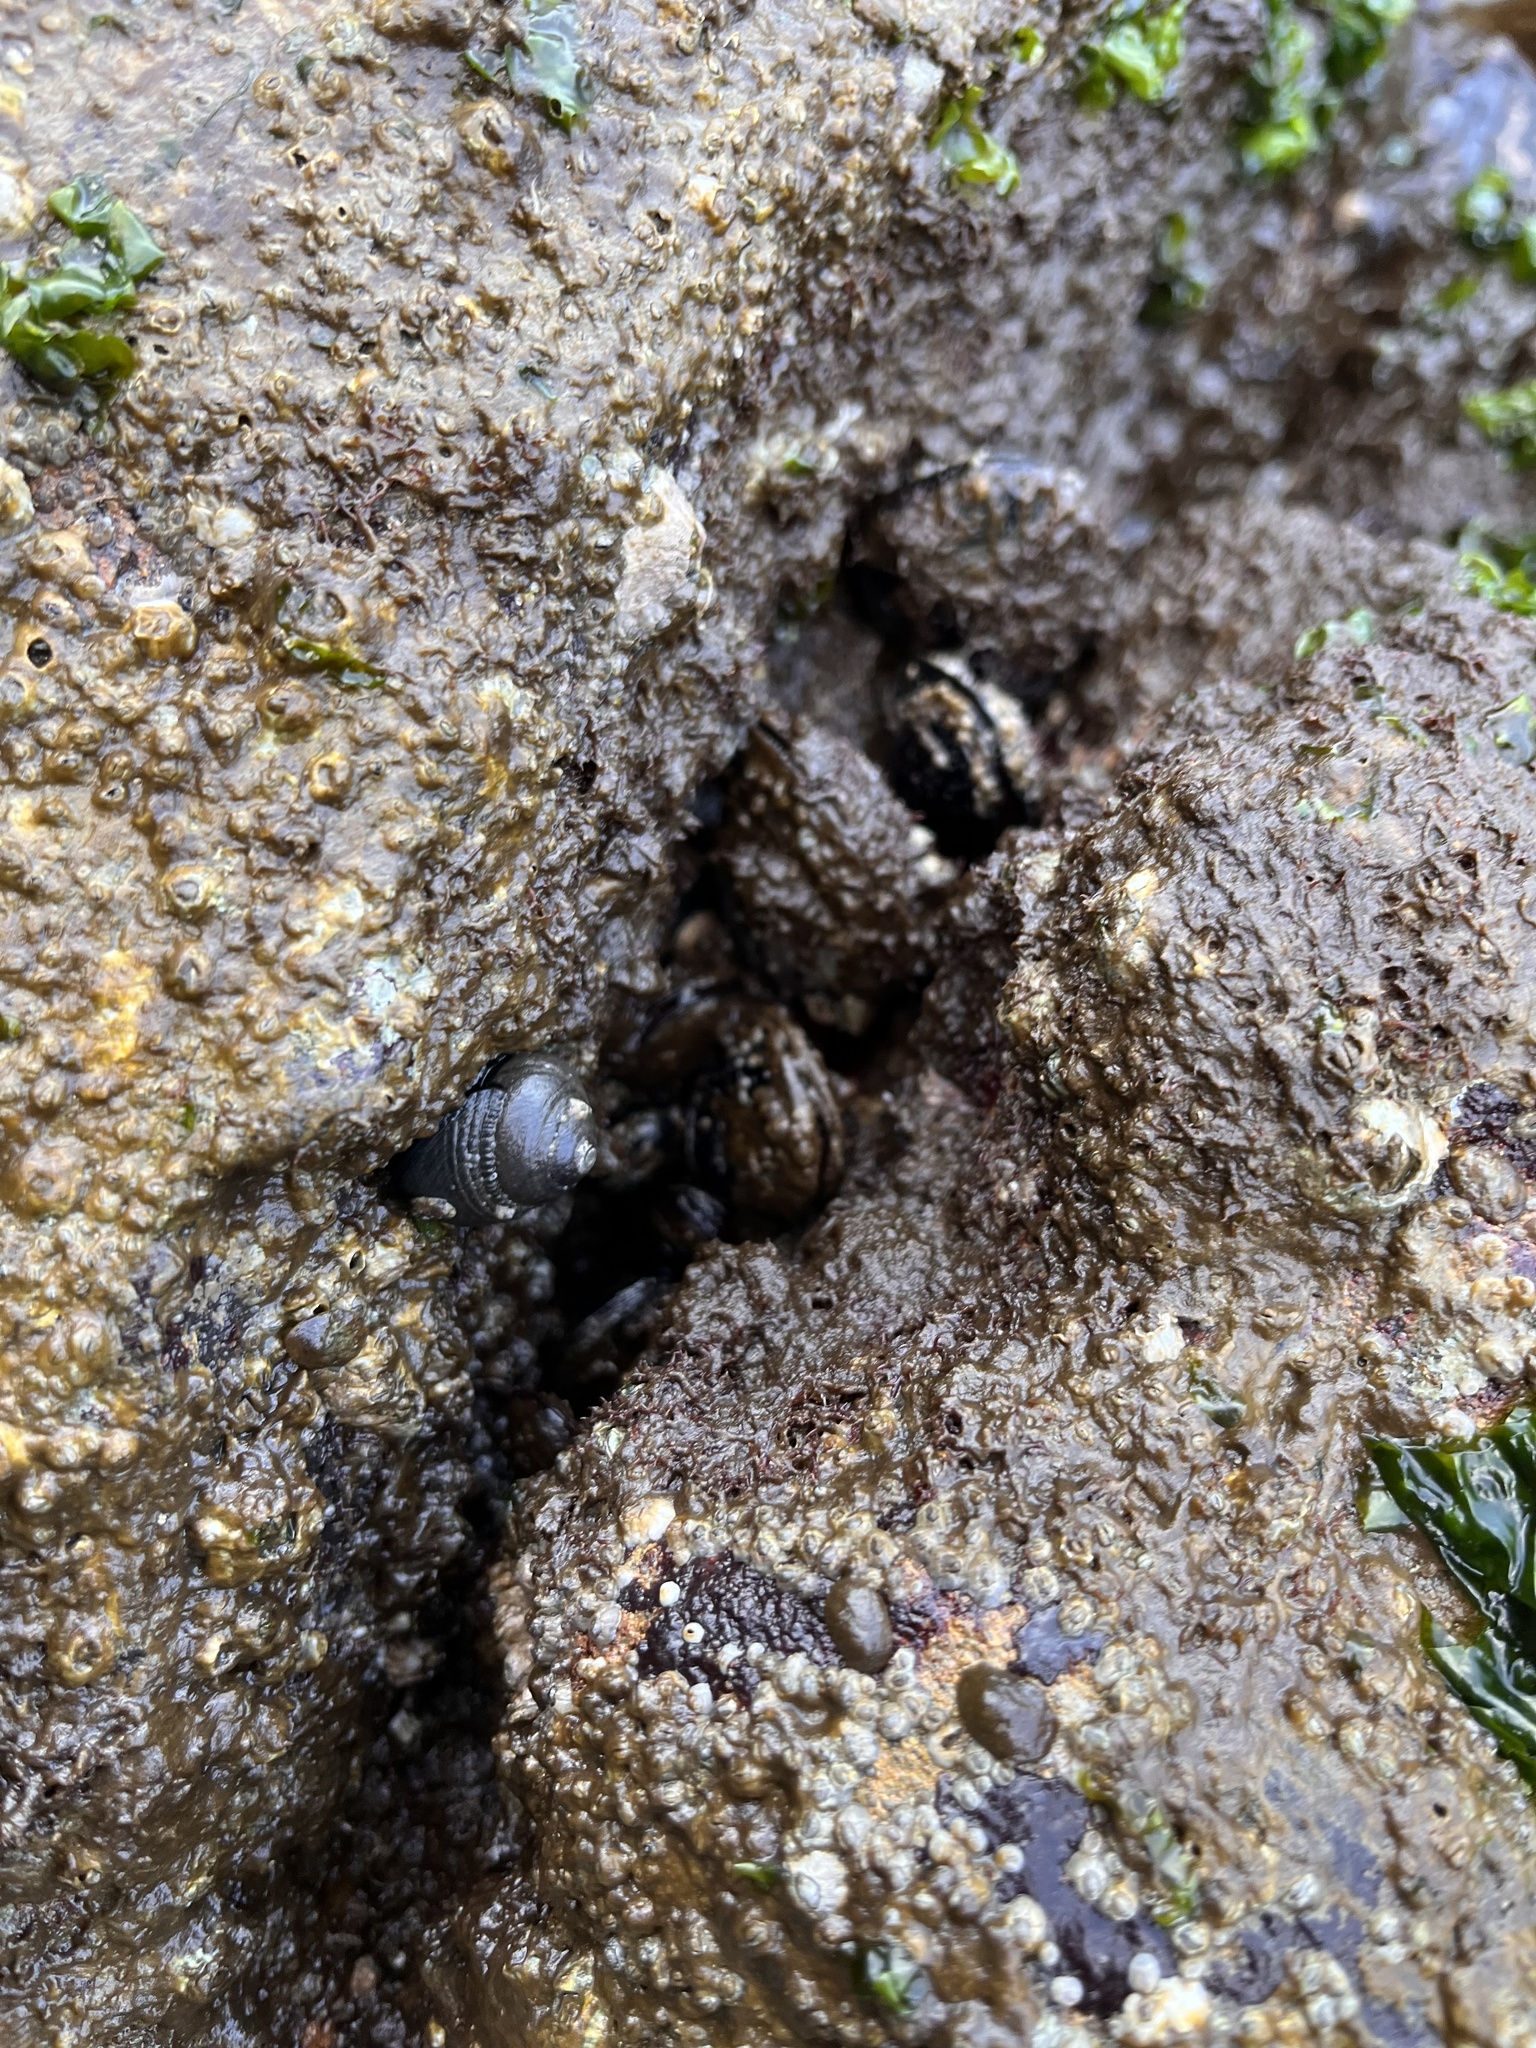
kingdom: Animalia
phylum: Mollusca
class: Gastropoda
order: Trochida
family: Tegulidae
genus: Tegula
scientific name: Tegula funebralis
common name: Black tegula
